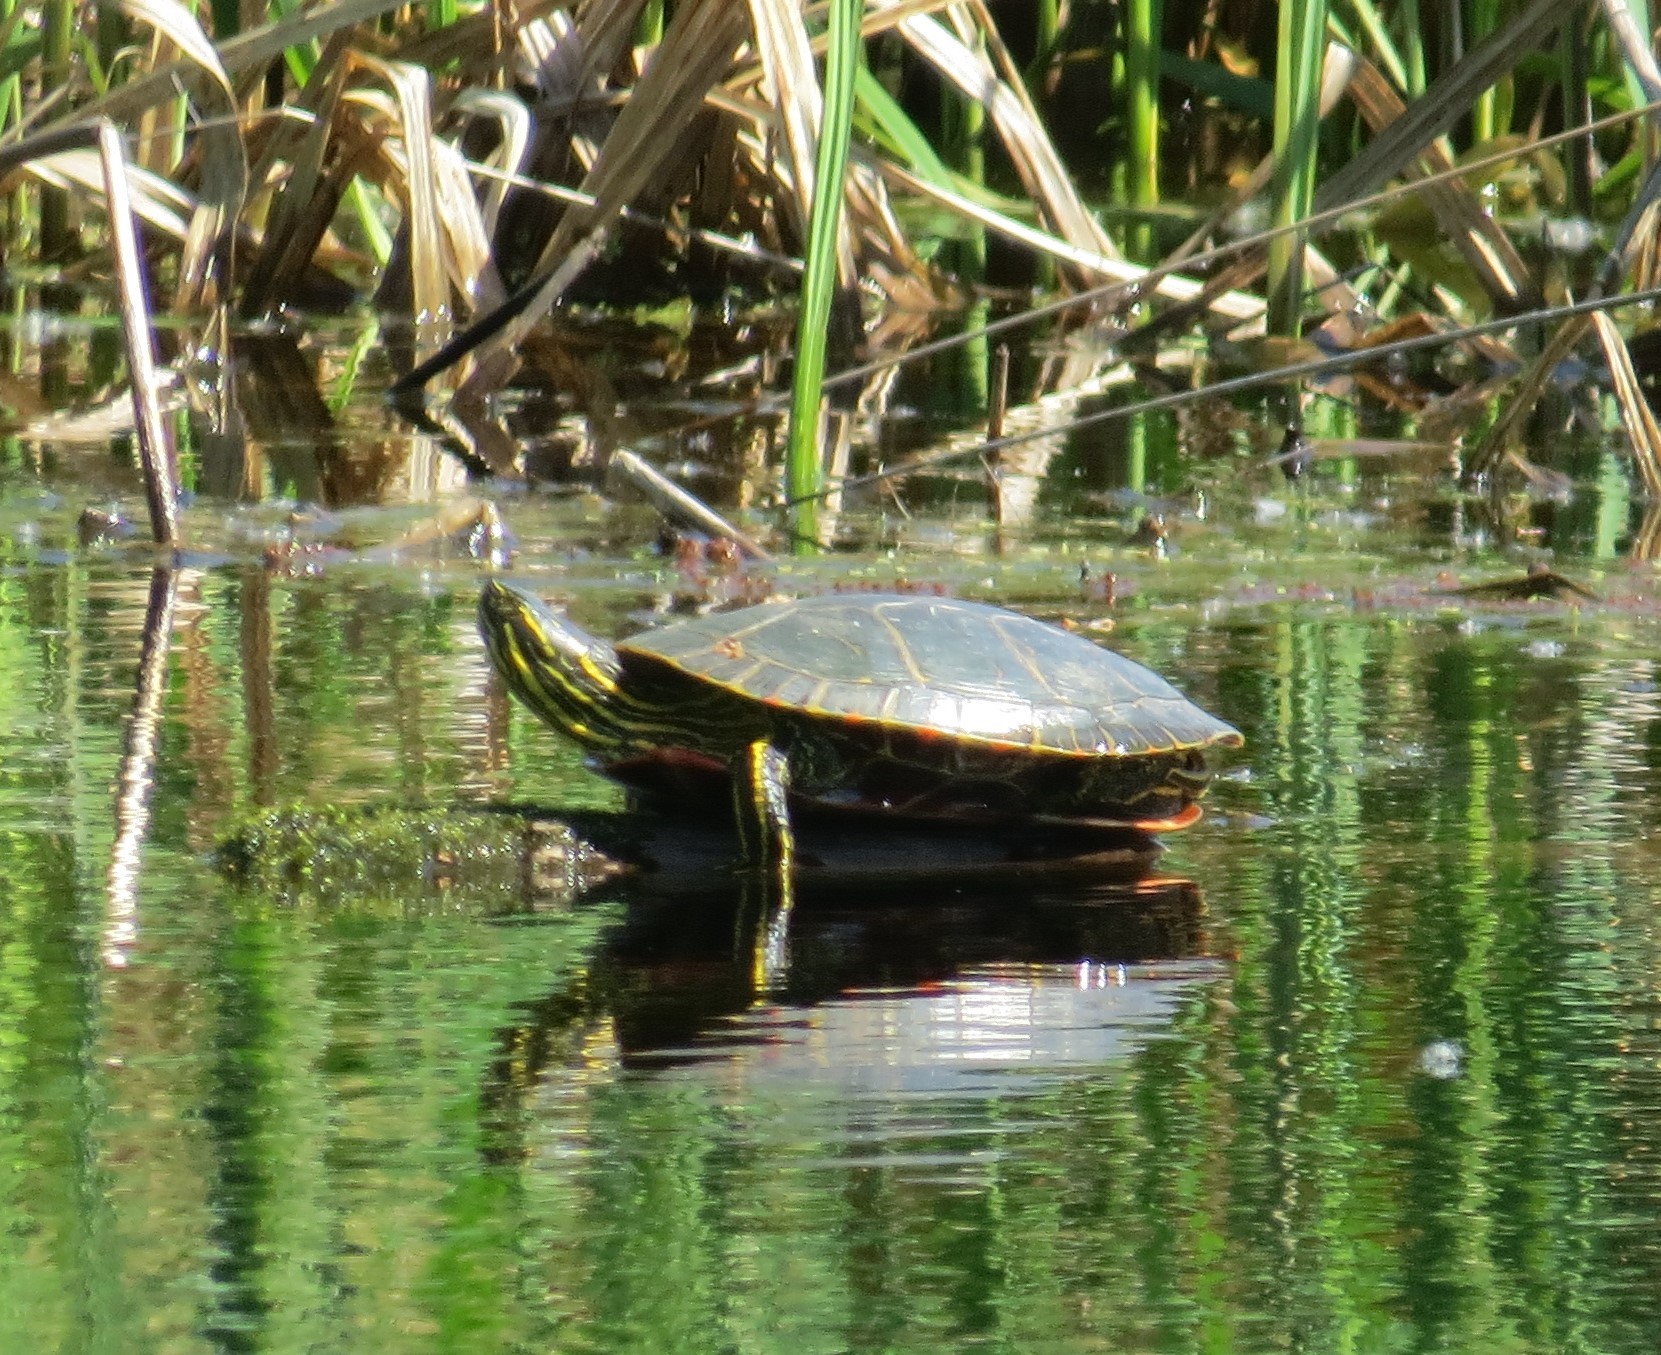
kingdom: Animalia
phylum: Chordata
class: Testudines
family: Emydidae
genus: Chrysemys
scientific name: Chrysemys picta
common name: Painted turtle
